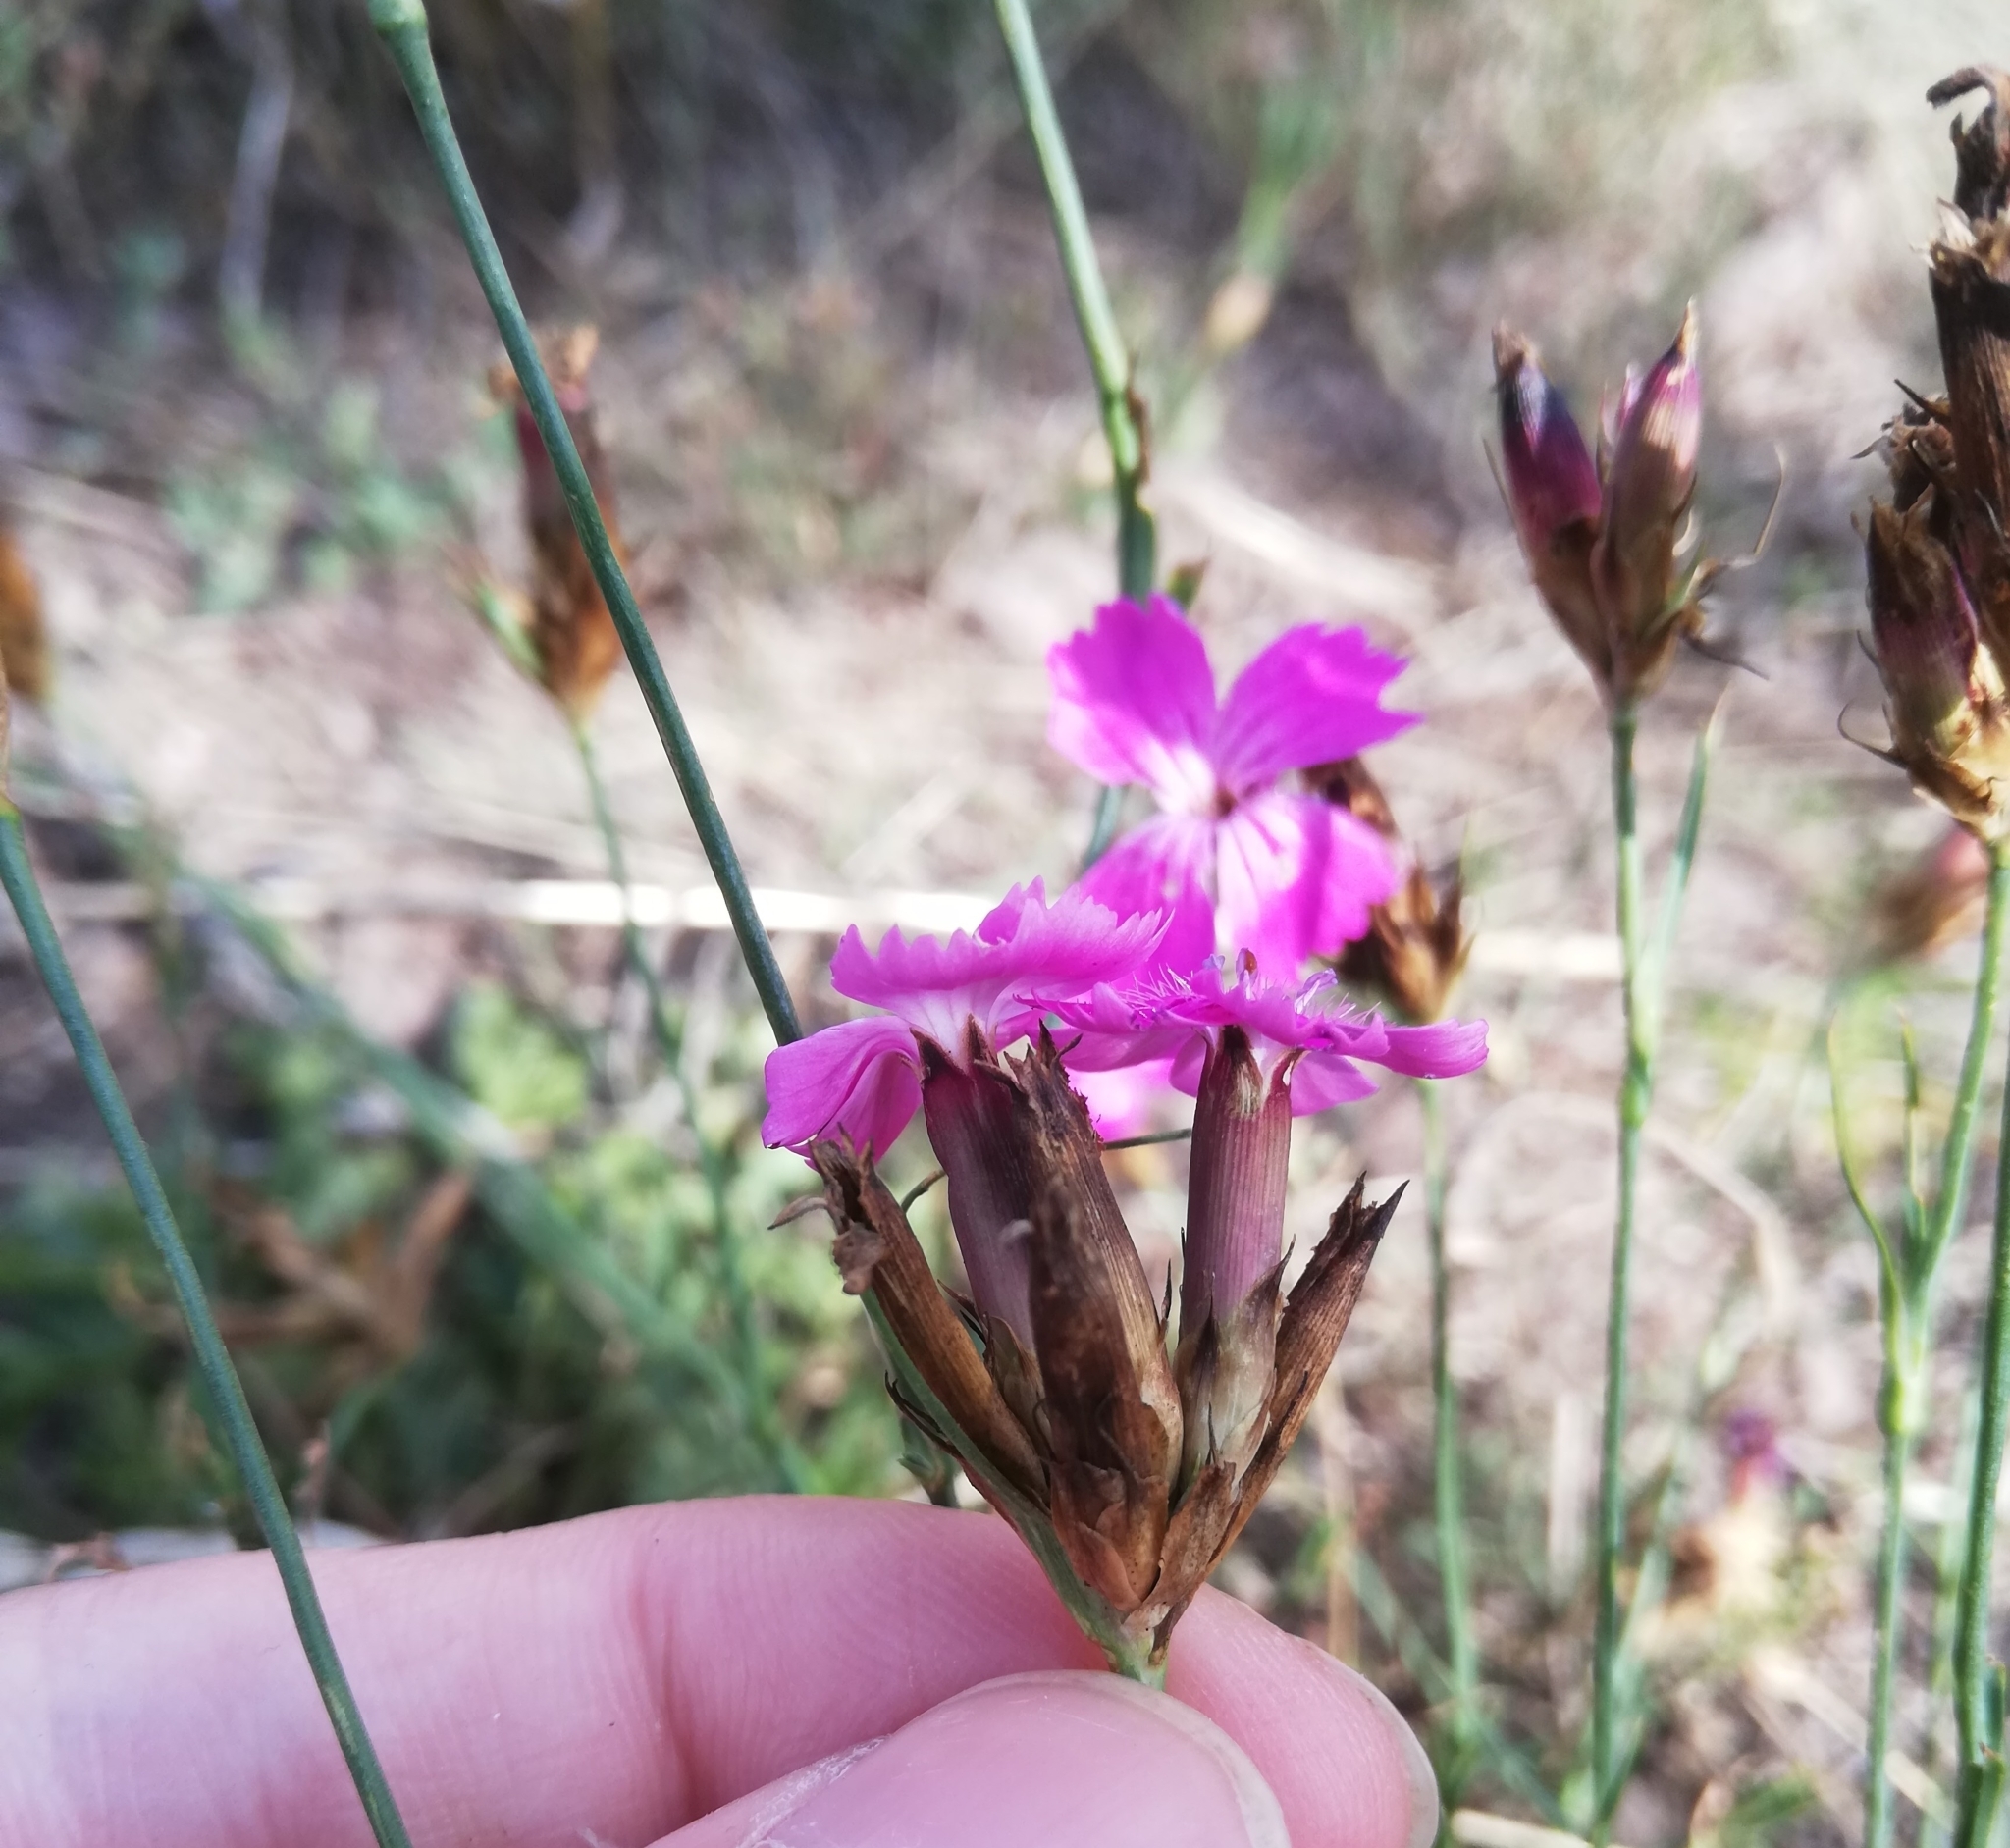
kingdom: Plantae
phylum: Tracheophyta
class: Magnoliopsida
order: Caryophyllales
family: Caryophyllaceae
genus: Dianthus
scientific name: Dianthus carthusianorum
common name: Carthusian pink
